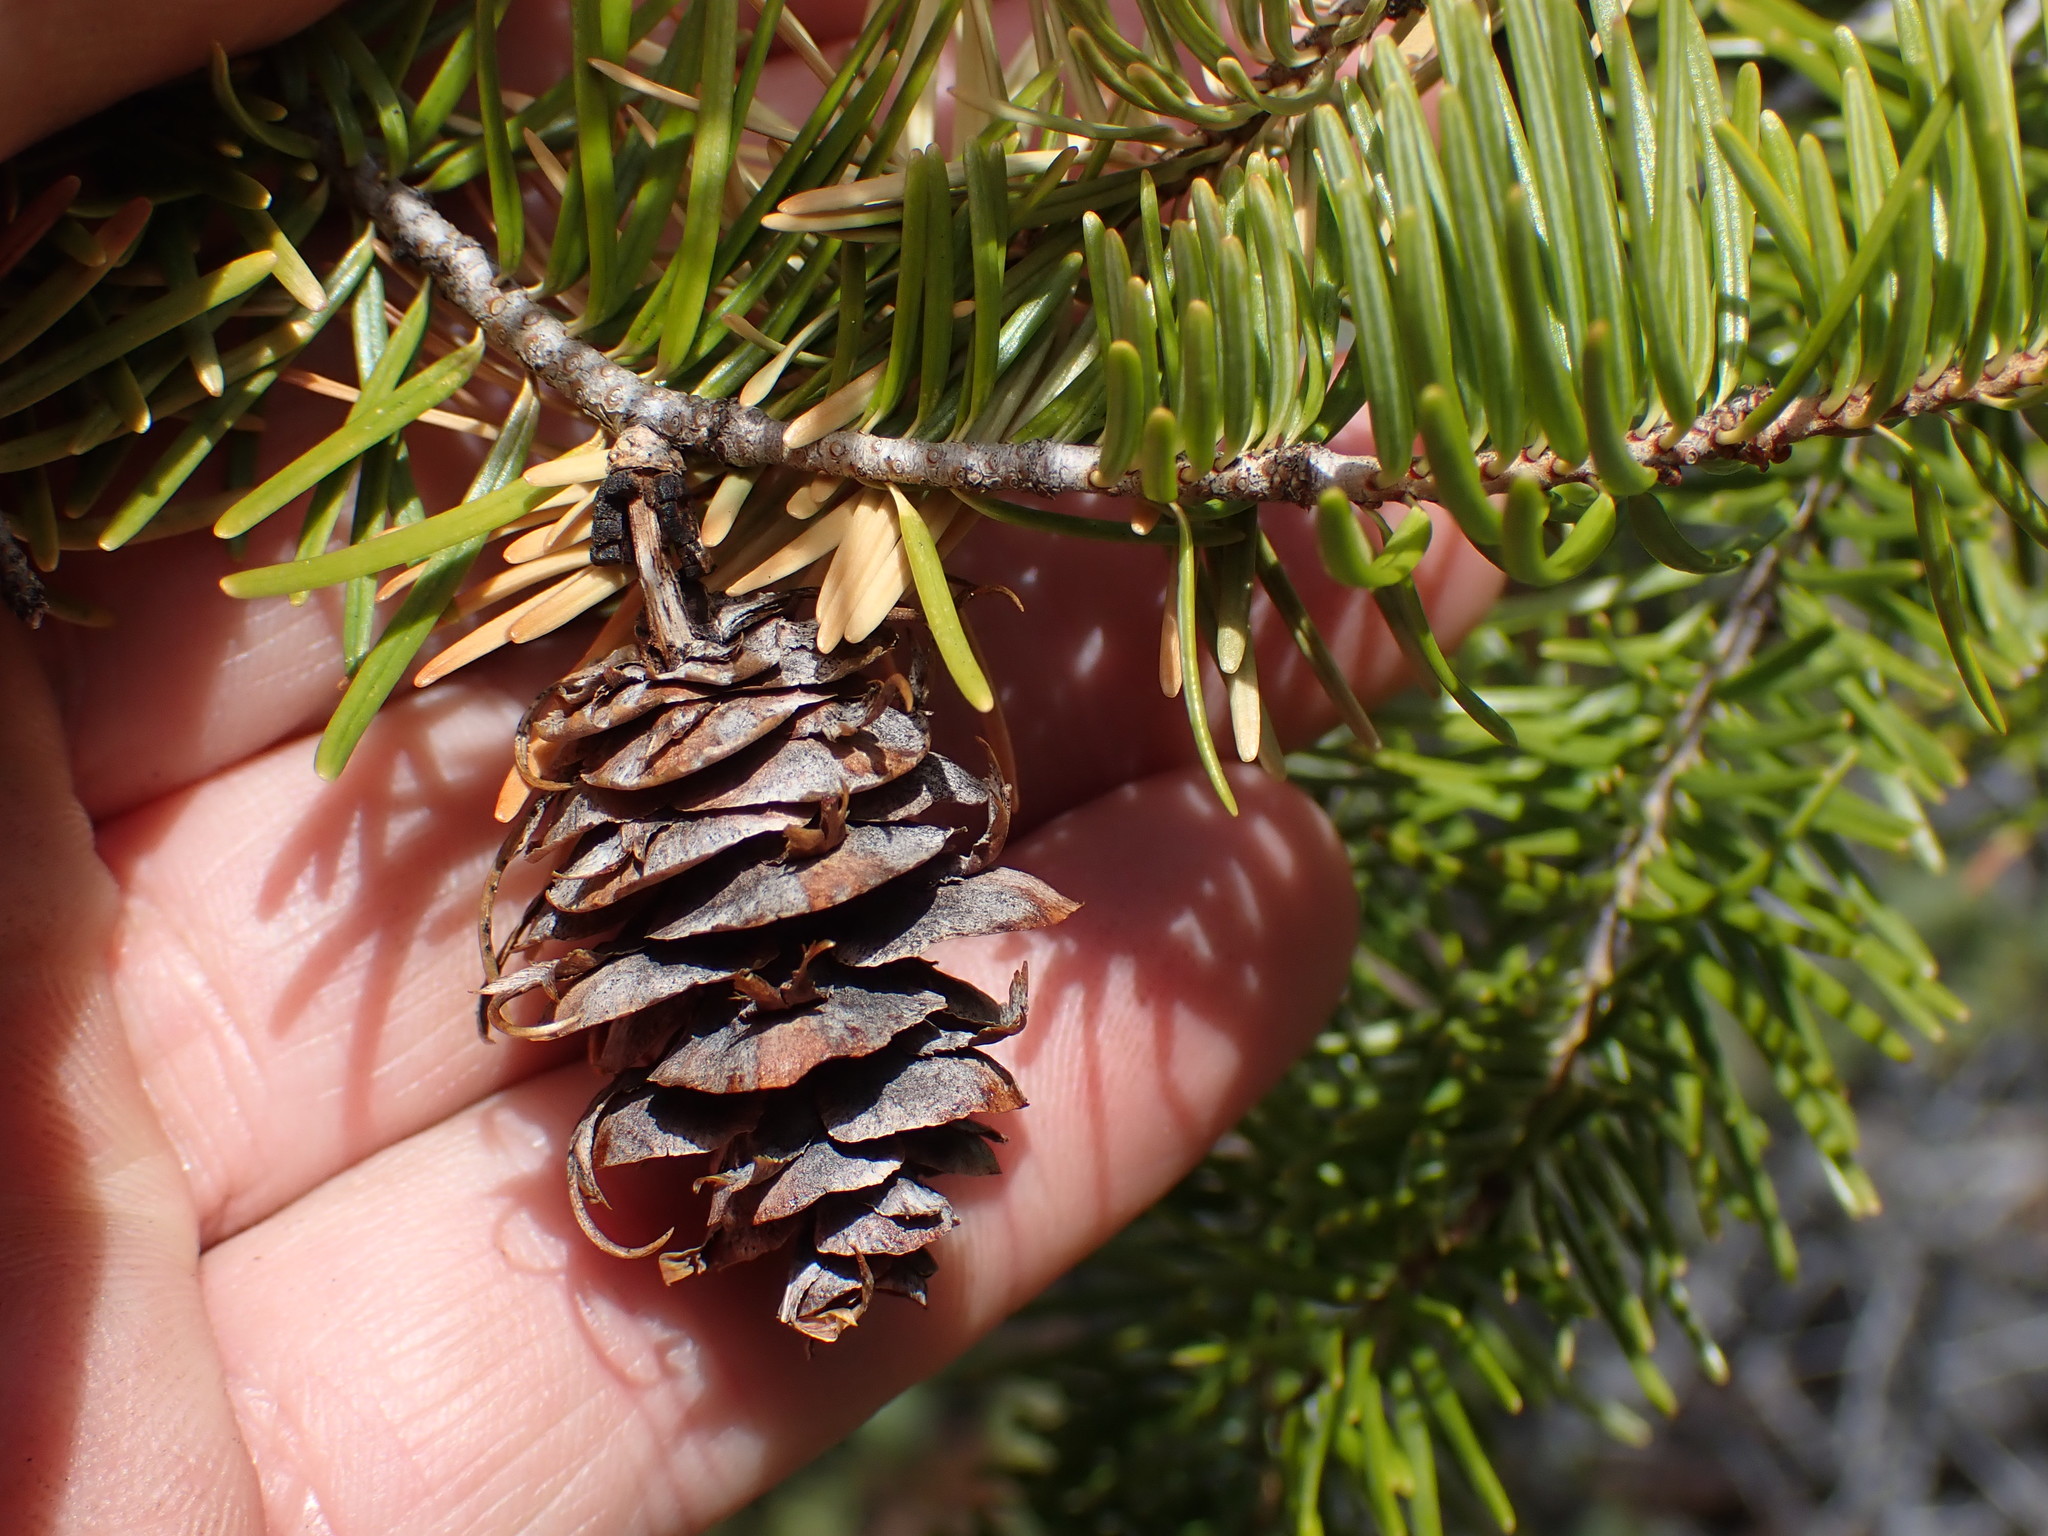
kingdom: Plantae
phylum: Tracheophyta
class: Pinopsida
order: Pinales
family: Pinaceae
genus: Pseudotsuga
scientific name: Pseudotsuga menziesii
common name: Douglas fir
